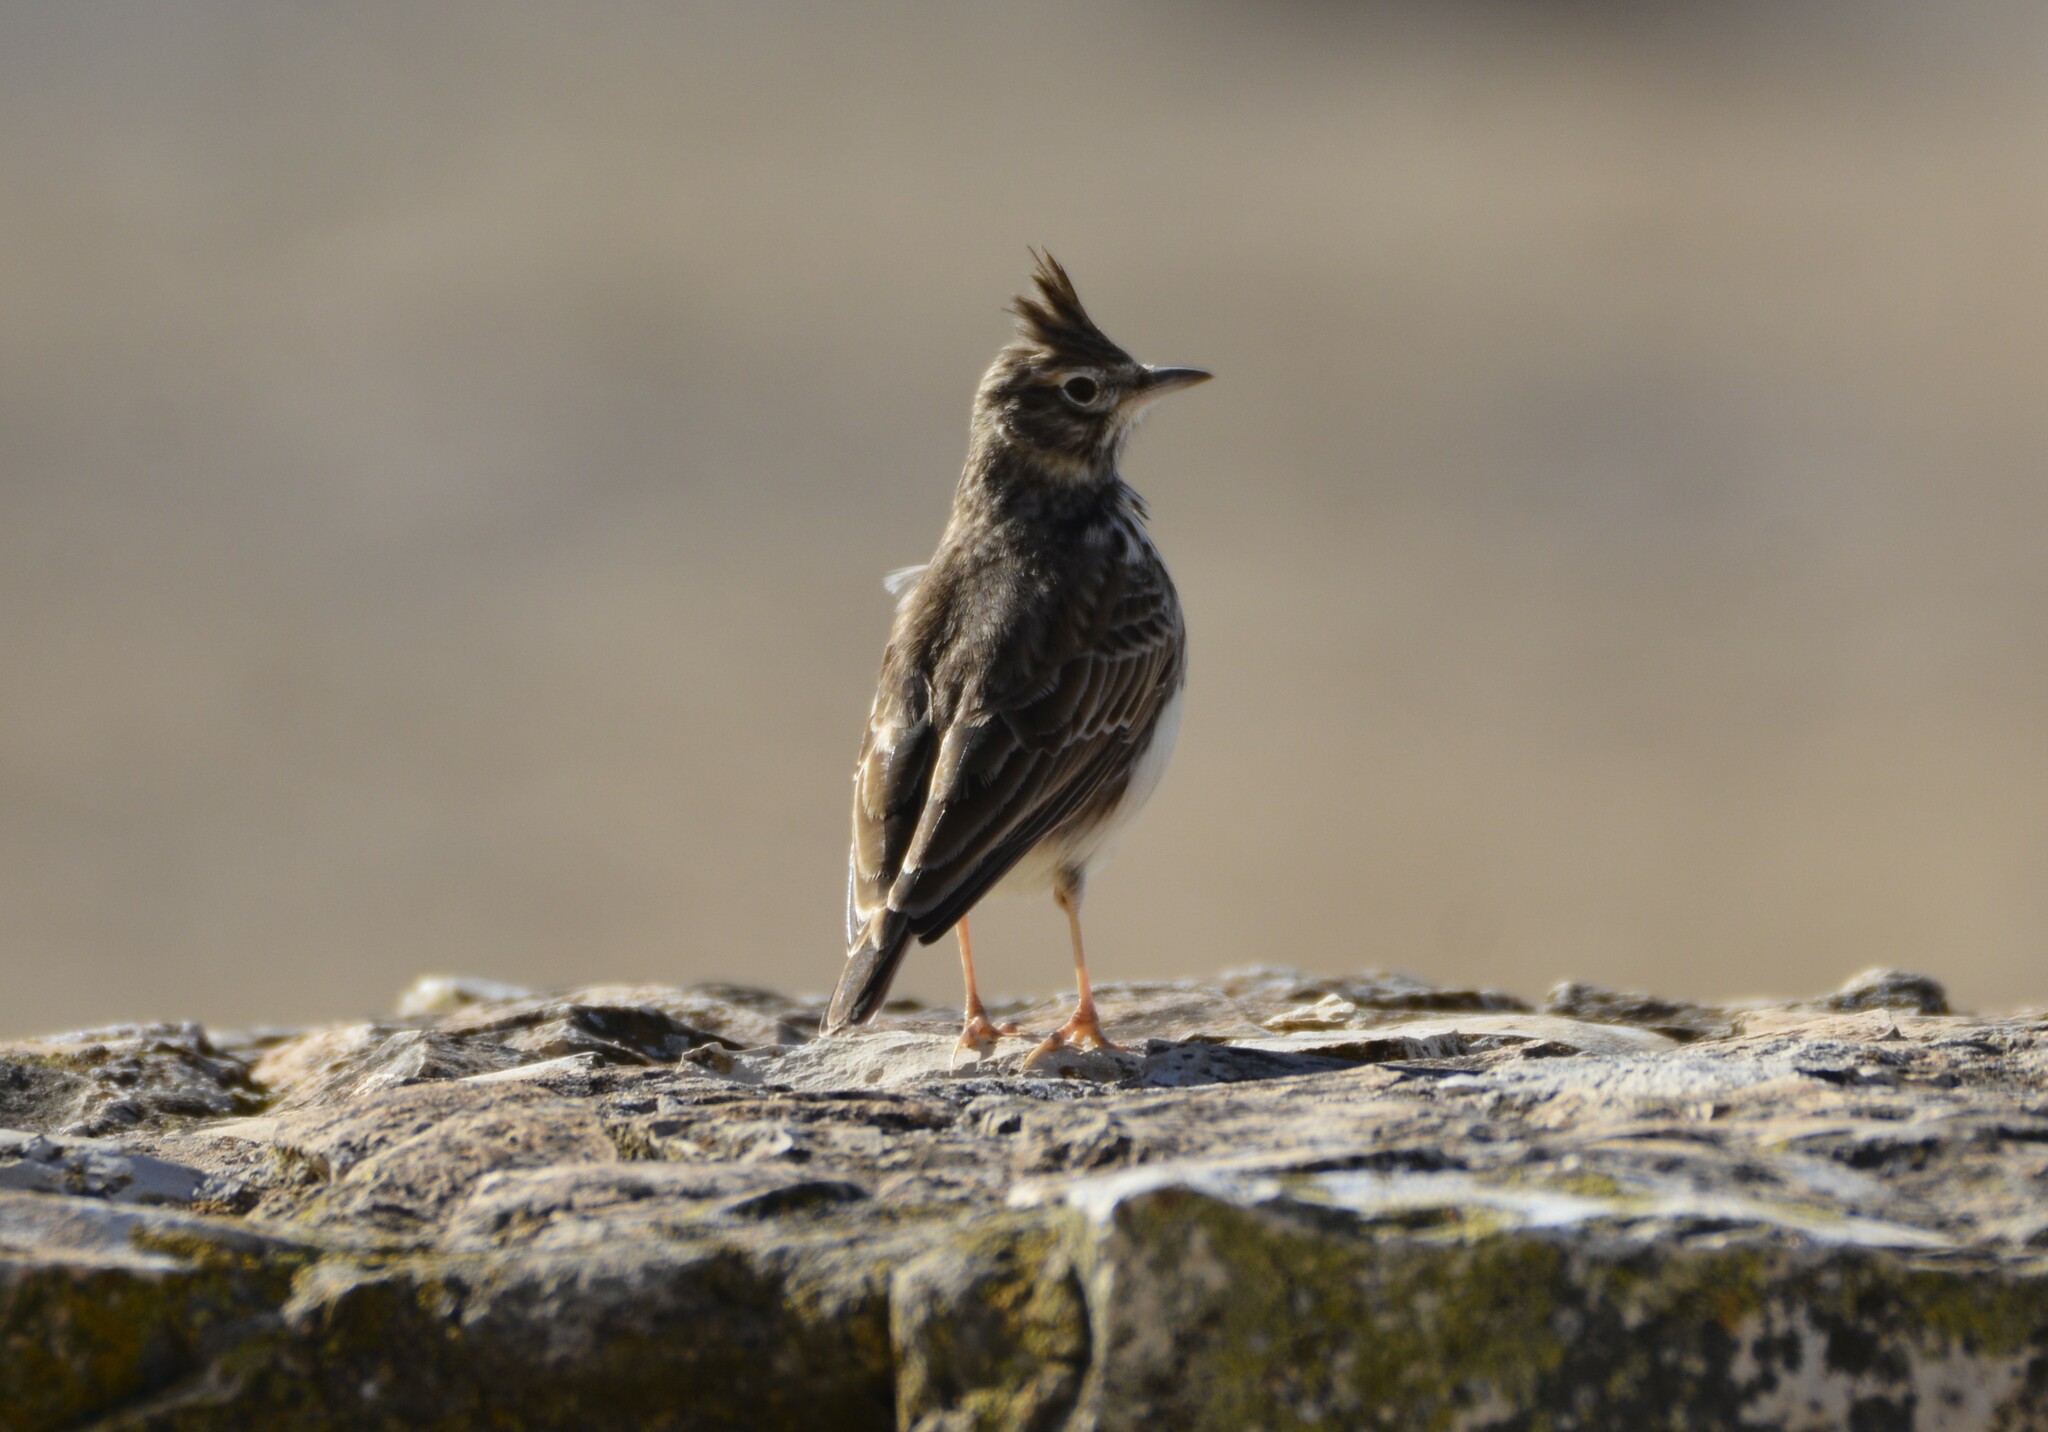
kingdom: Animalia
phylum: Chordata
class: Aves
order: Passeriformes
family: Alaudidae
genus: Galerida
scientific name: Galerida theklae
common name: Thekla lark
